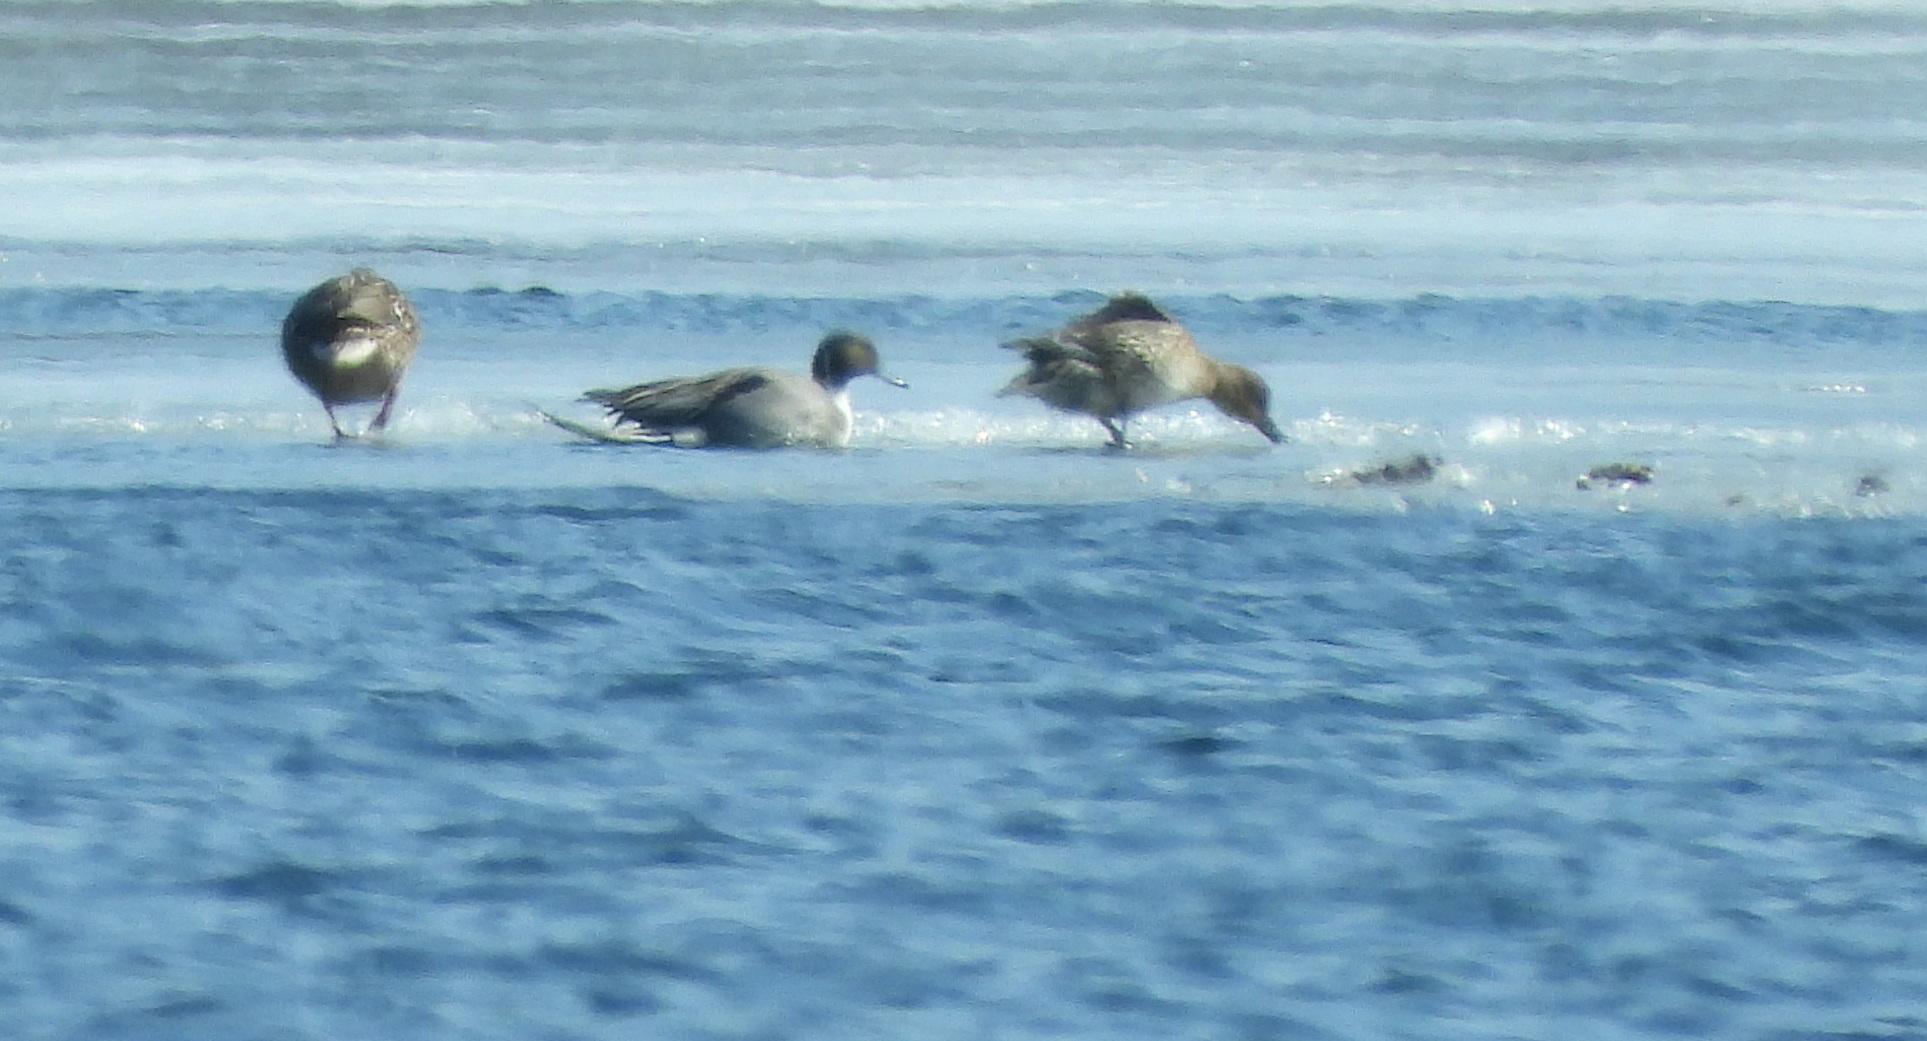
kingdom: Animalia
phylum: Chordata
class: Aves
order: Anseriformes
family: Anatidae
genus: Anas
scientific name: Anas acuta
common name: Northern pintail
